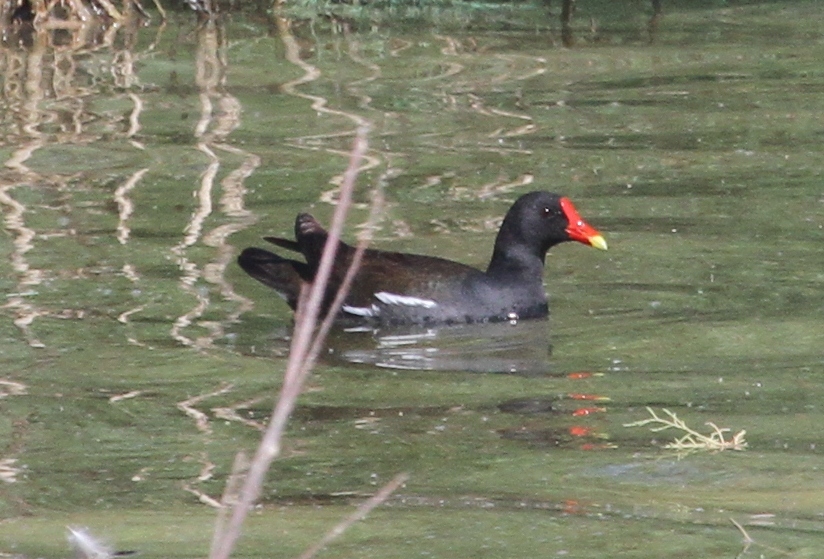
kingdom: Animalia
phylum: Chordata
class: Aves
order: Gruiformes
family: Rallidae
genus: Gallinula
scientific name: Gallinula chloropus
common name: Common moorhen
